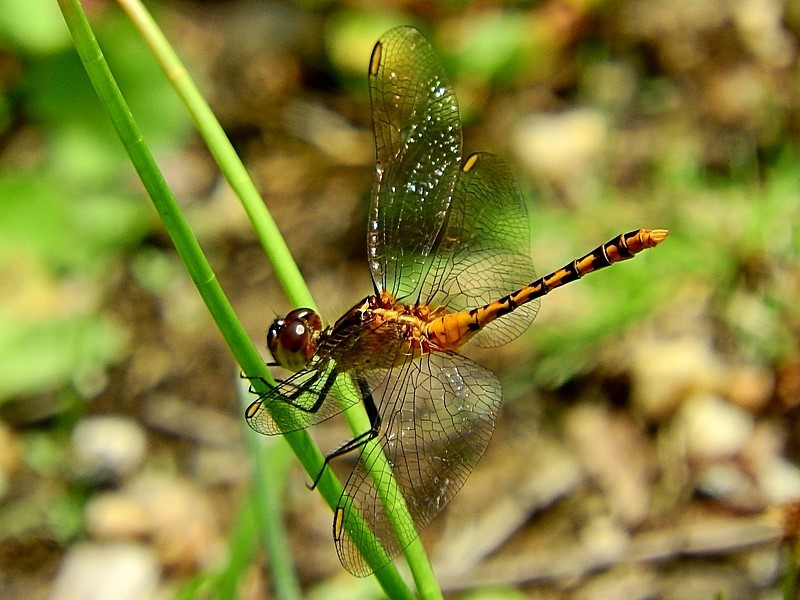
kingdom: Animalia
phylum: Arthropoda
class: Insecta
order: Odonata
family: Libellulidae
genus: Diplacodes
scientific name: Diplacodes melanopsis
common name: Black-faced percher
